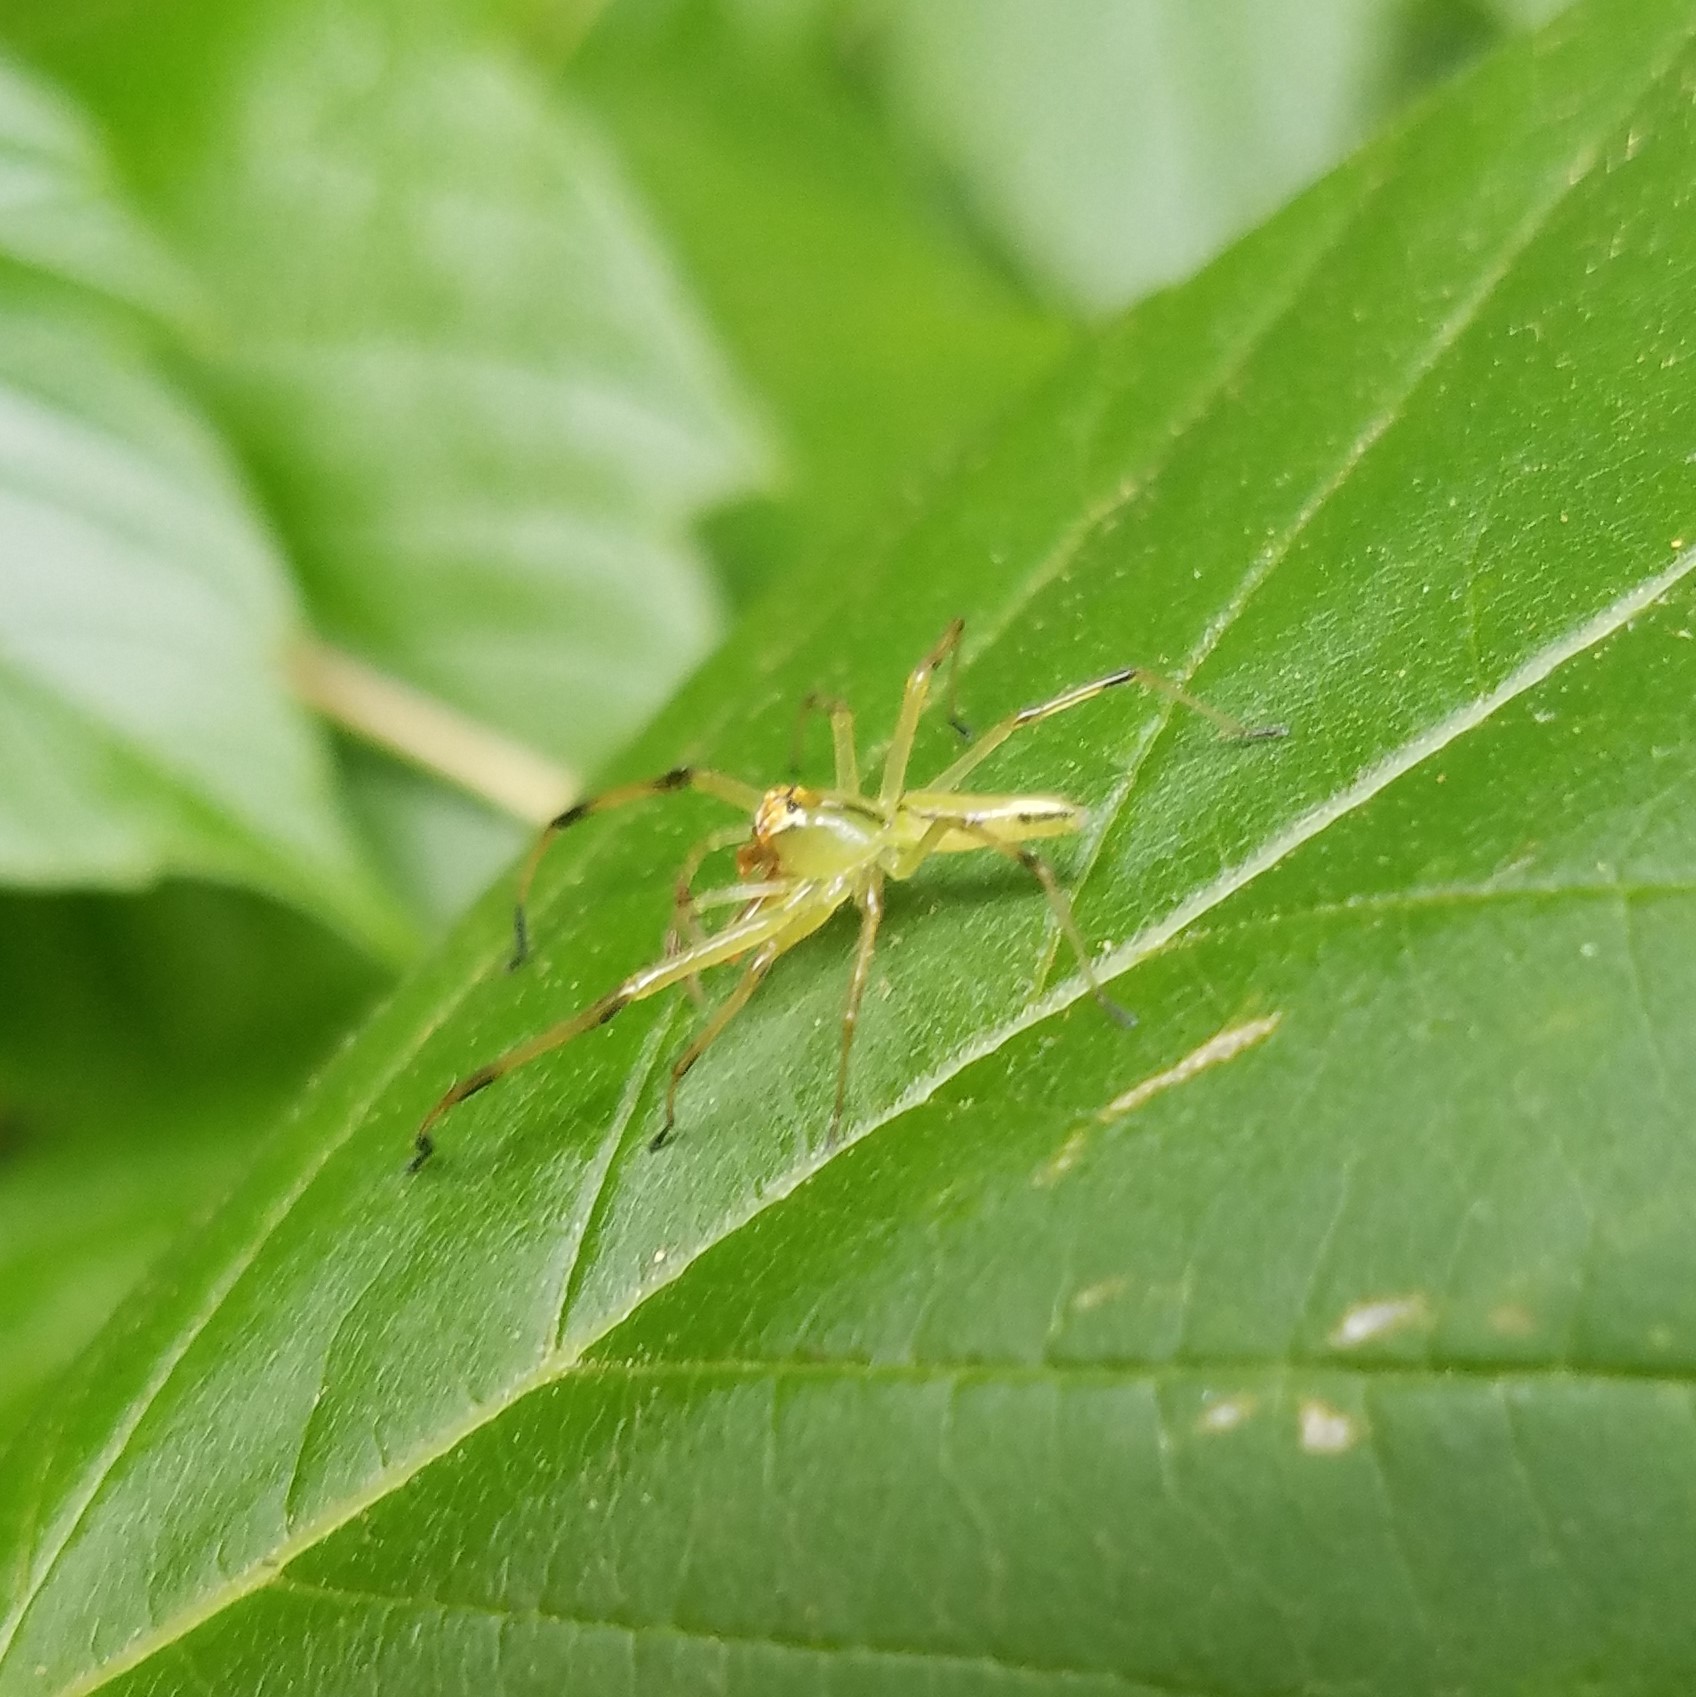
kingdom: Animalia
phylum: Arthropoda
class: Arachnida
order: Araneae
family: Salticidae
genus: Lyssomanes
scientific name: Lyssomanes viridis
